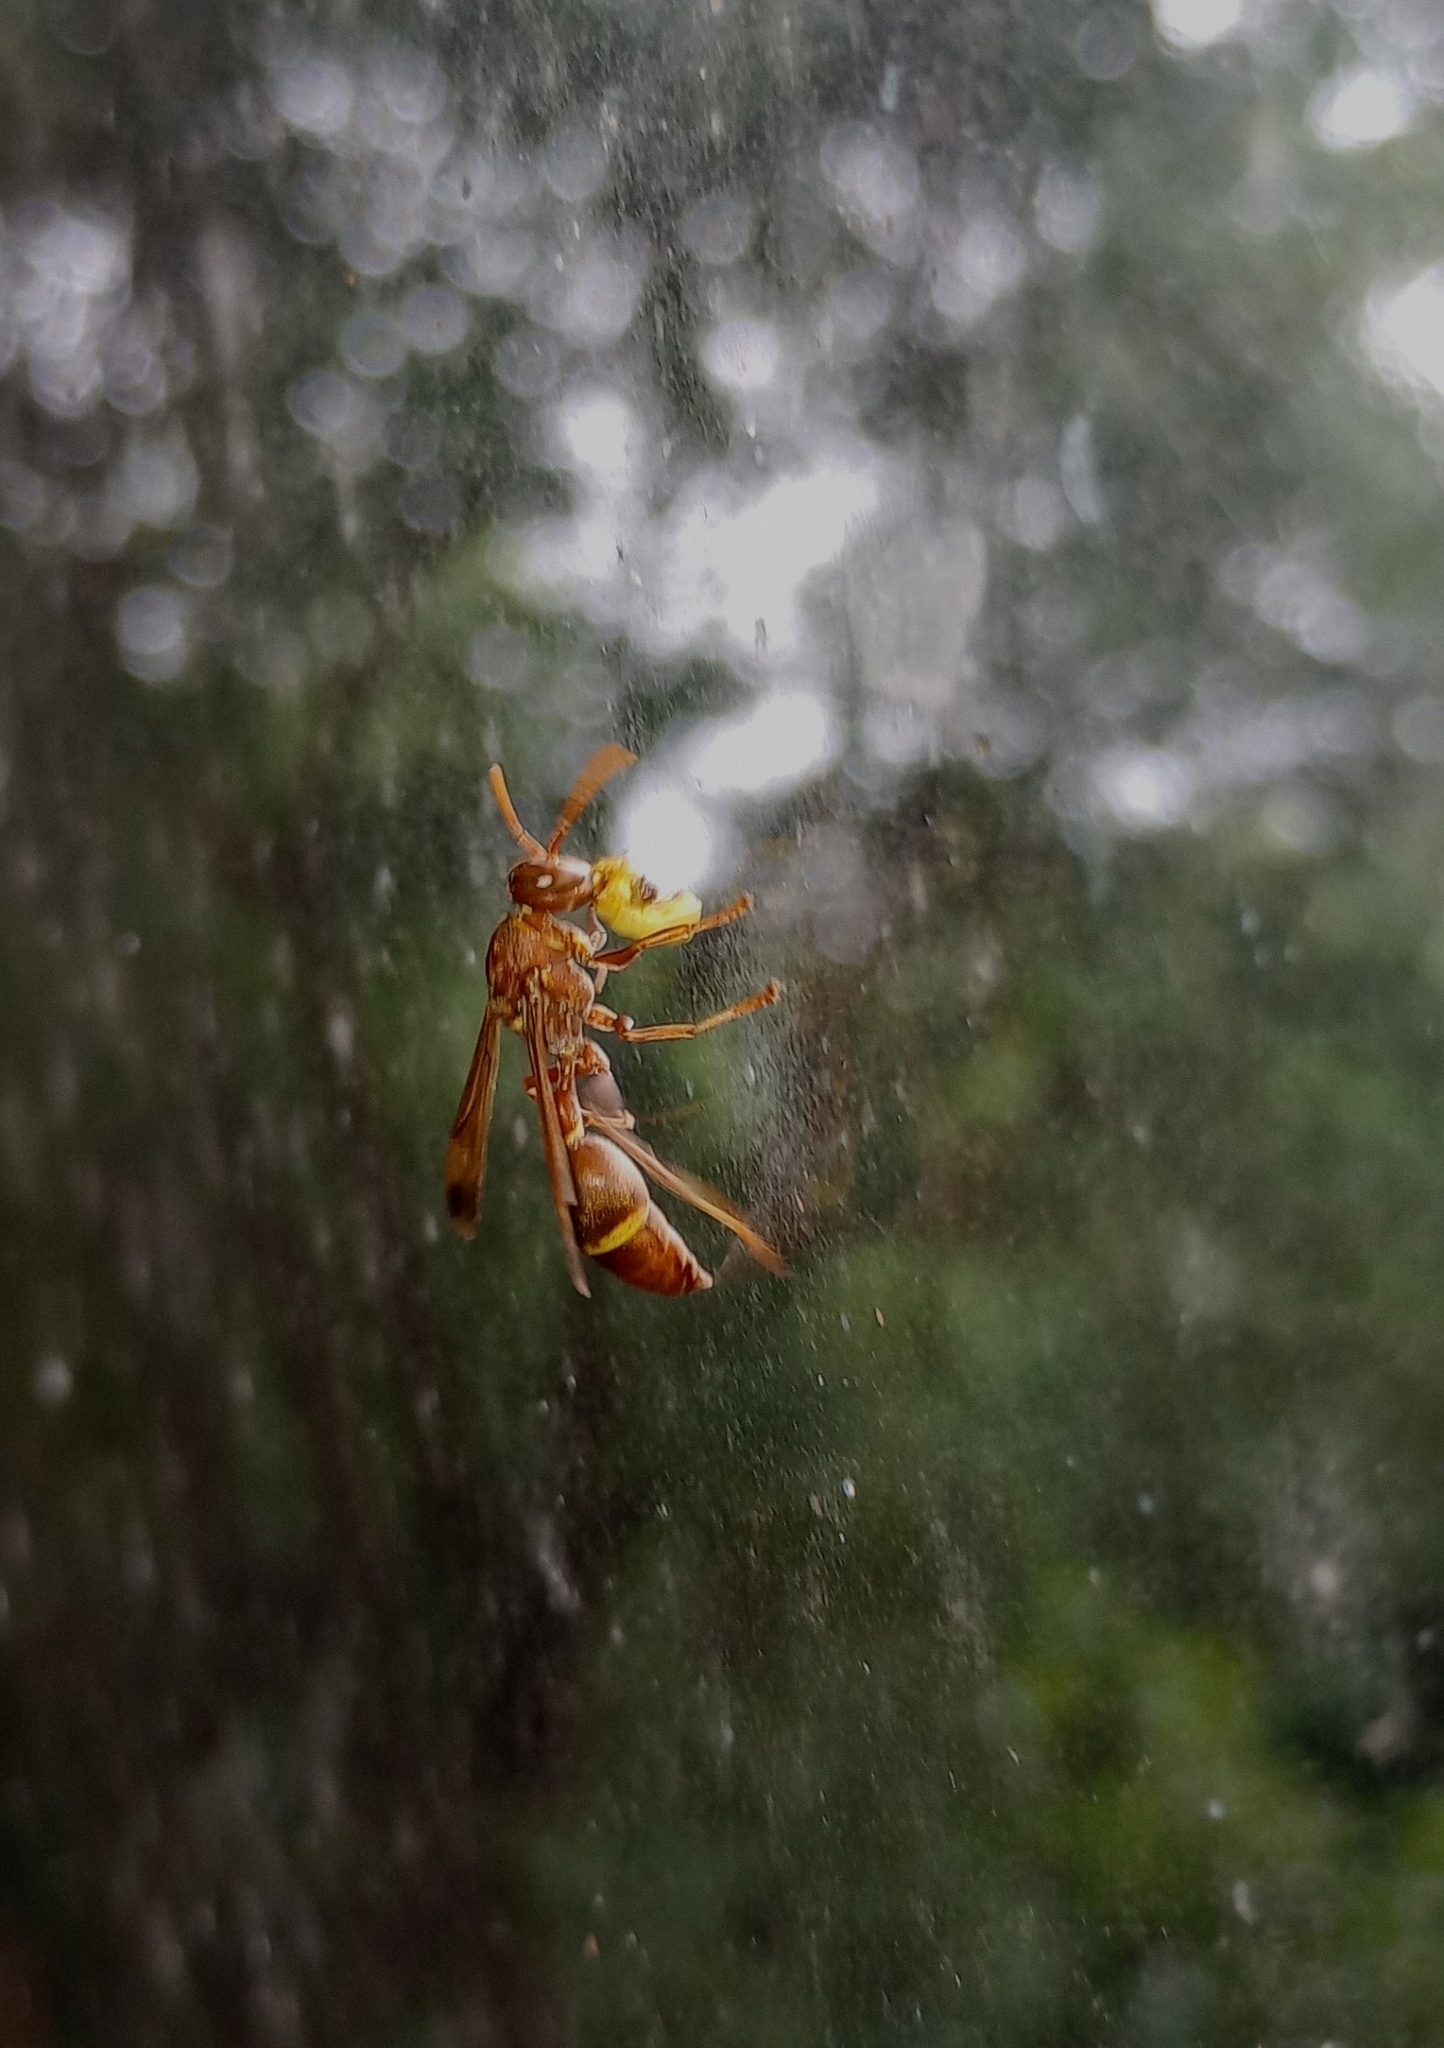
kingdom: Animalia
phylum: Arthropoda
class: Insecta
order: Hymenoptera
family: Vespidae
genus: Ropalidia
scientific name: Ropalidia marginata
